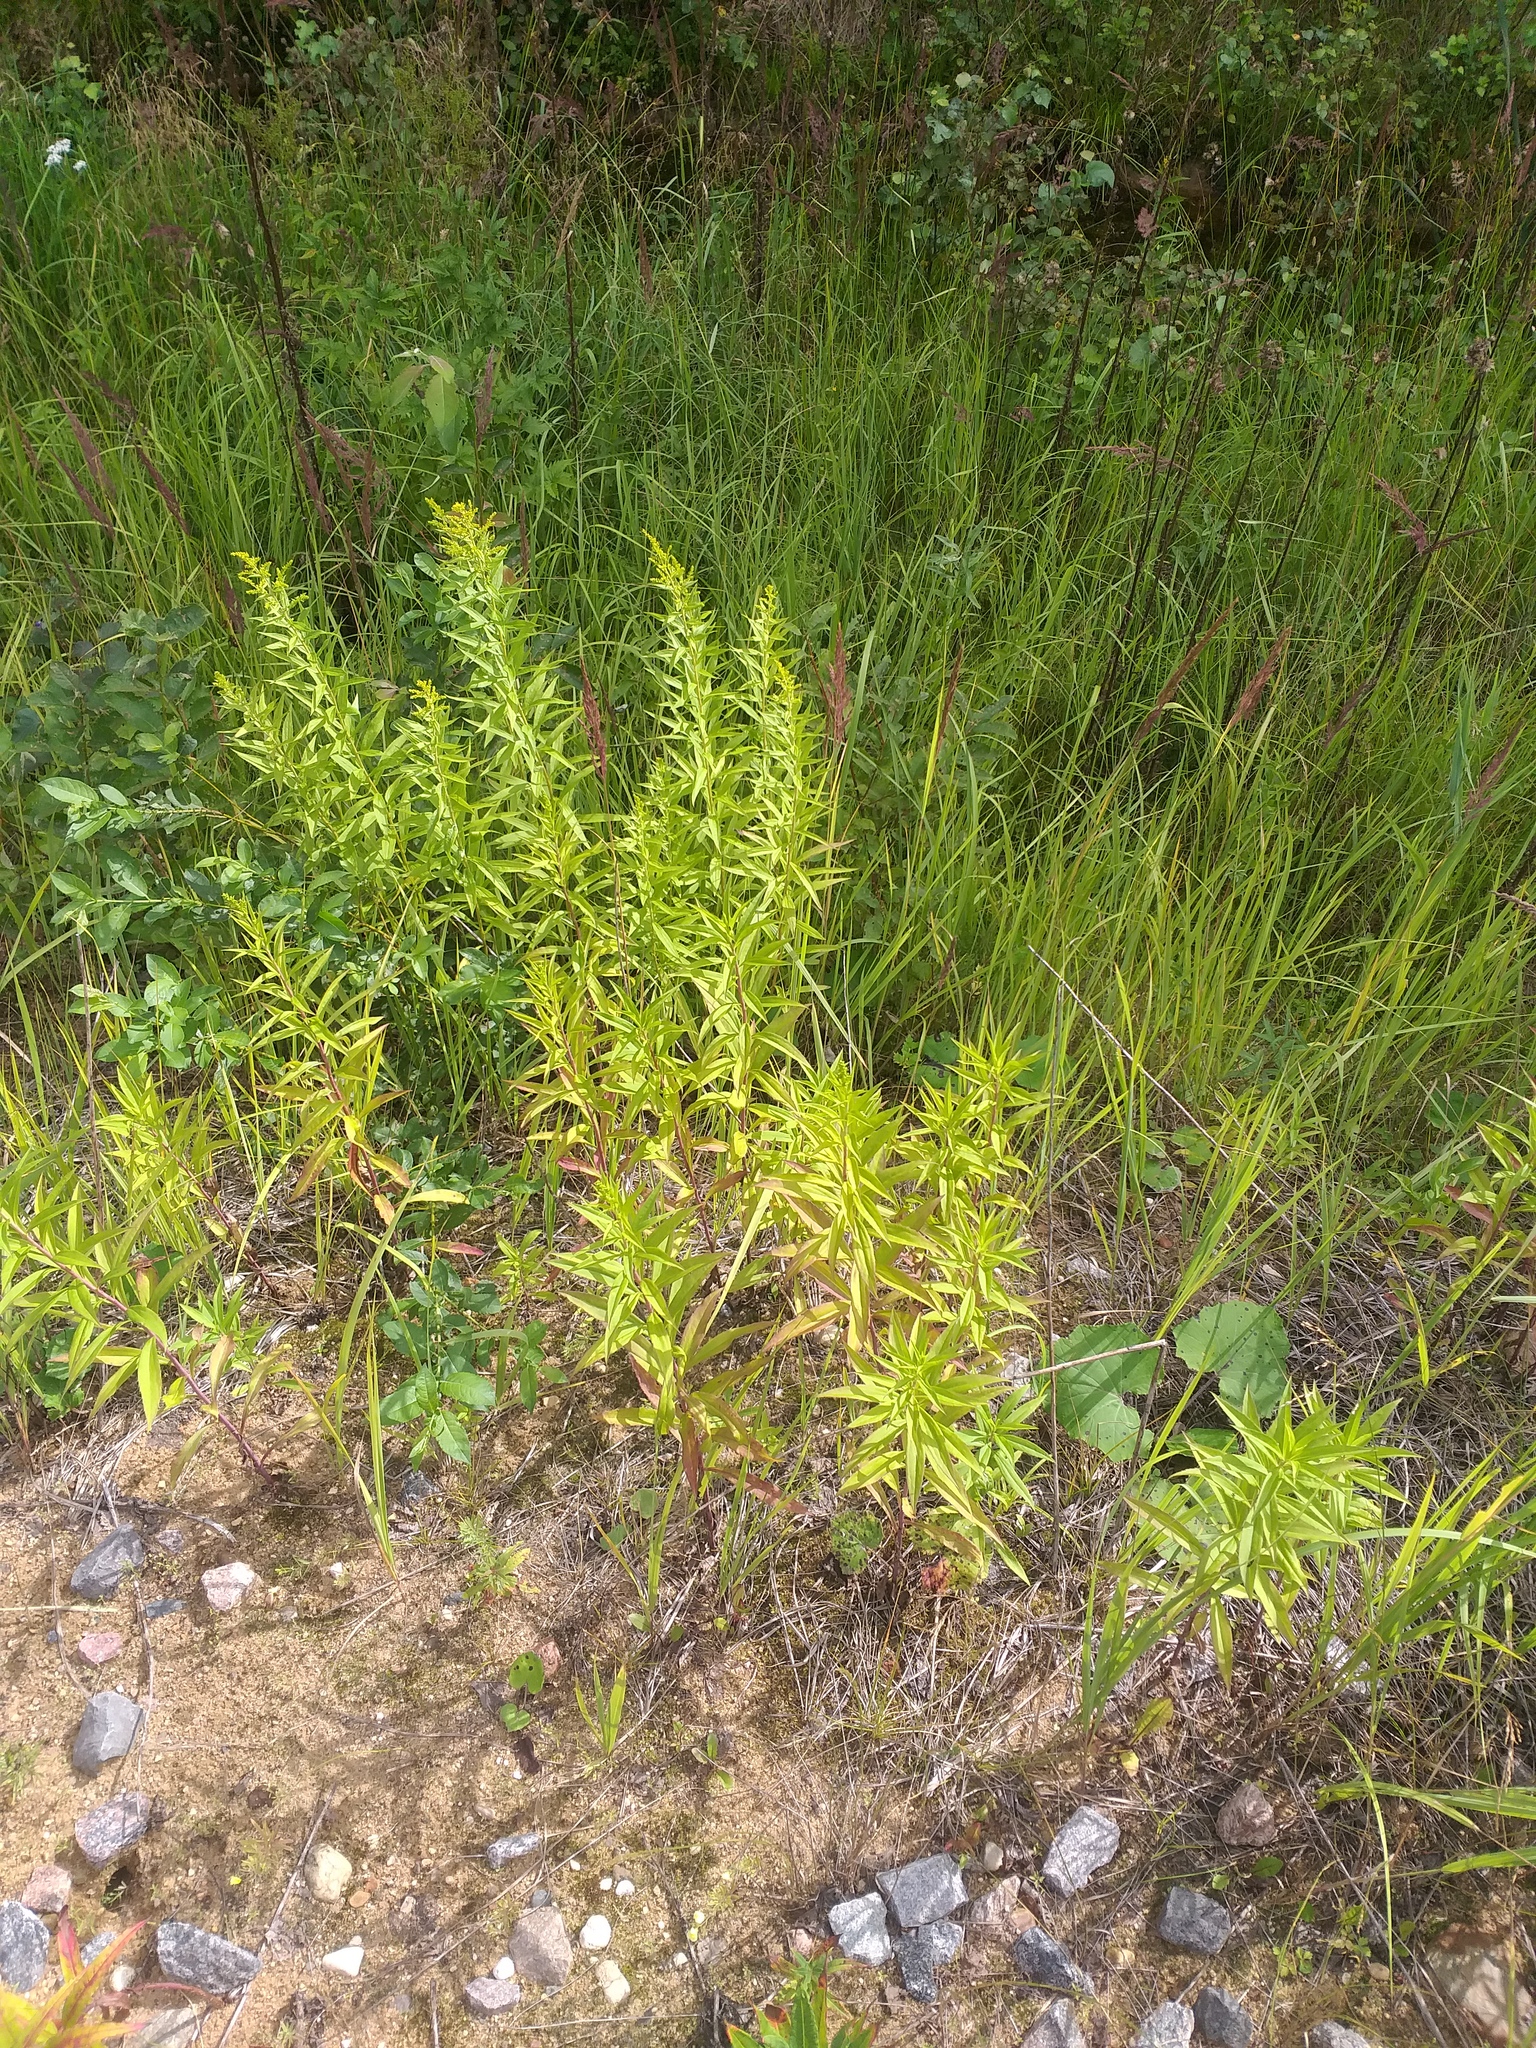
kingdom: Plantae
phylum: Tracheophyta
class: Magnoliopsida
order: Asterales
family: Asteraceae
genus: Solidago
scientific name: Solidago canadensis
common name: Canada goldenrod
